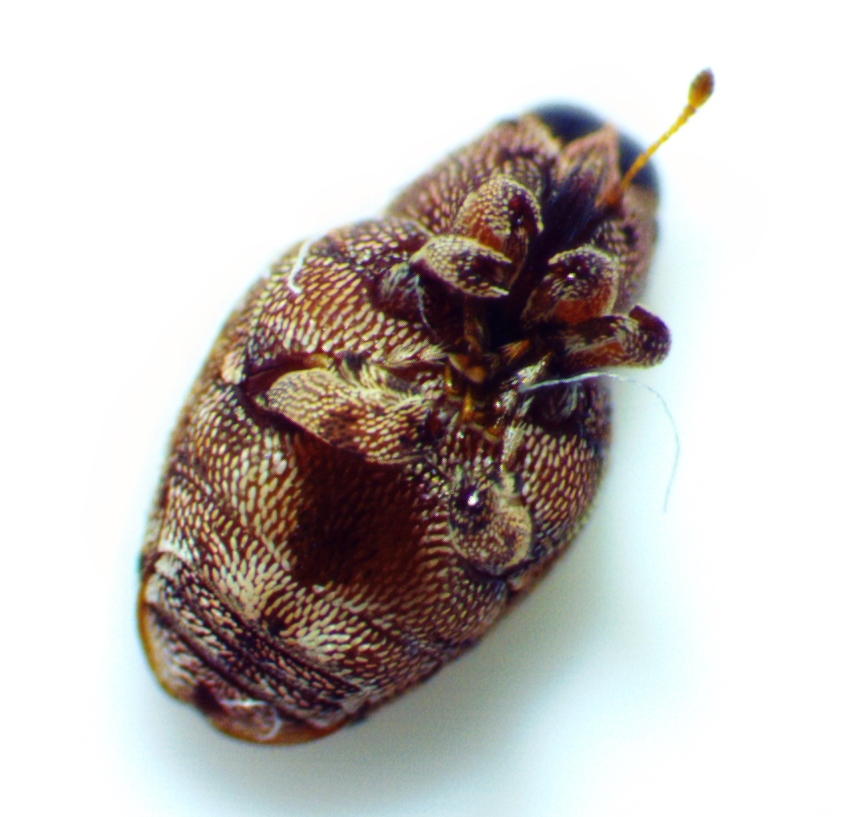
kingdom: Animalia
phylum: Arthropoda
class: Insecta
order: Coleoptera
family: Curculionidae
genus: Lechriops
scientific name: Lechriops oculatus
